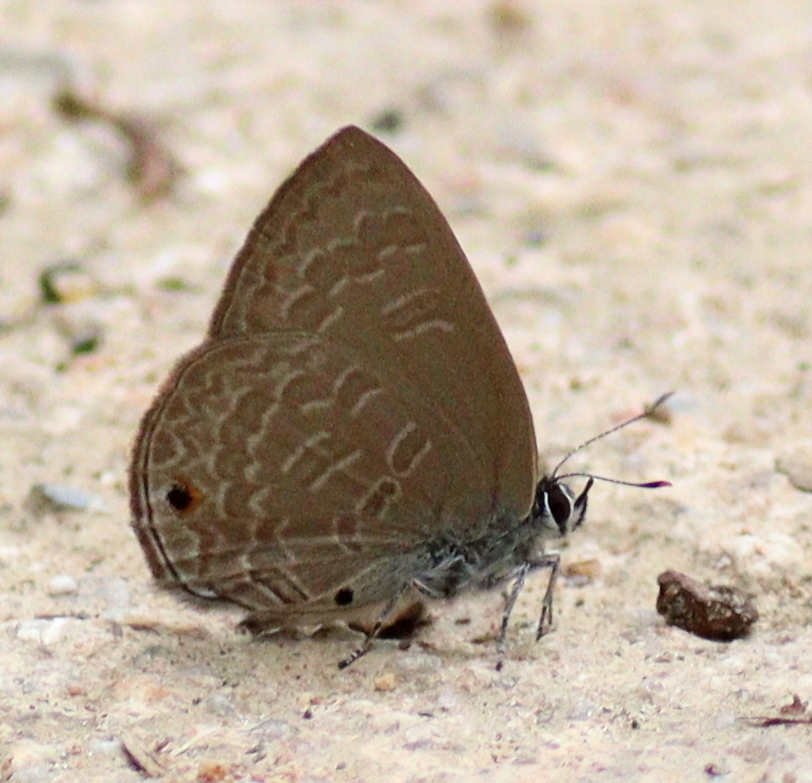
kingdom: Animalia
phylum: Arthropoda
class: Insecta
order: Lepidoptera
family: Lycaenidae
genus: Anthene
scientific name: Anthene emolus
